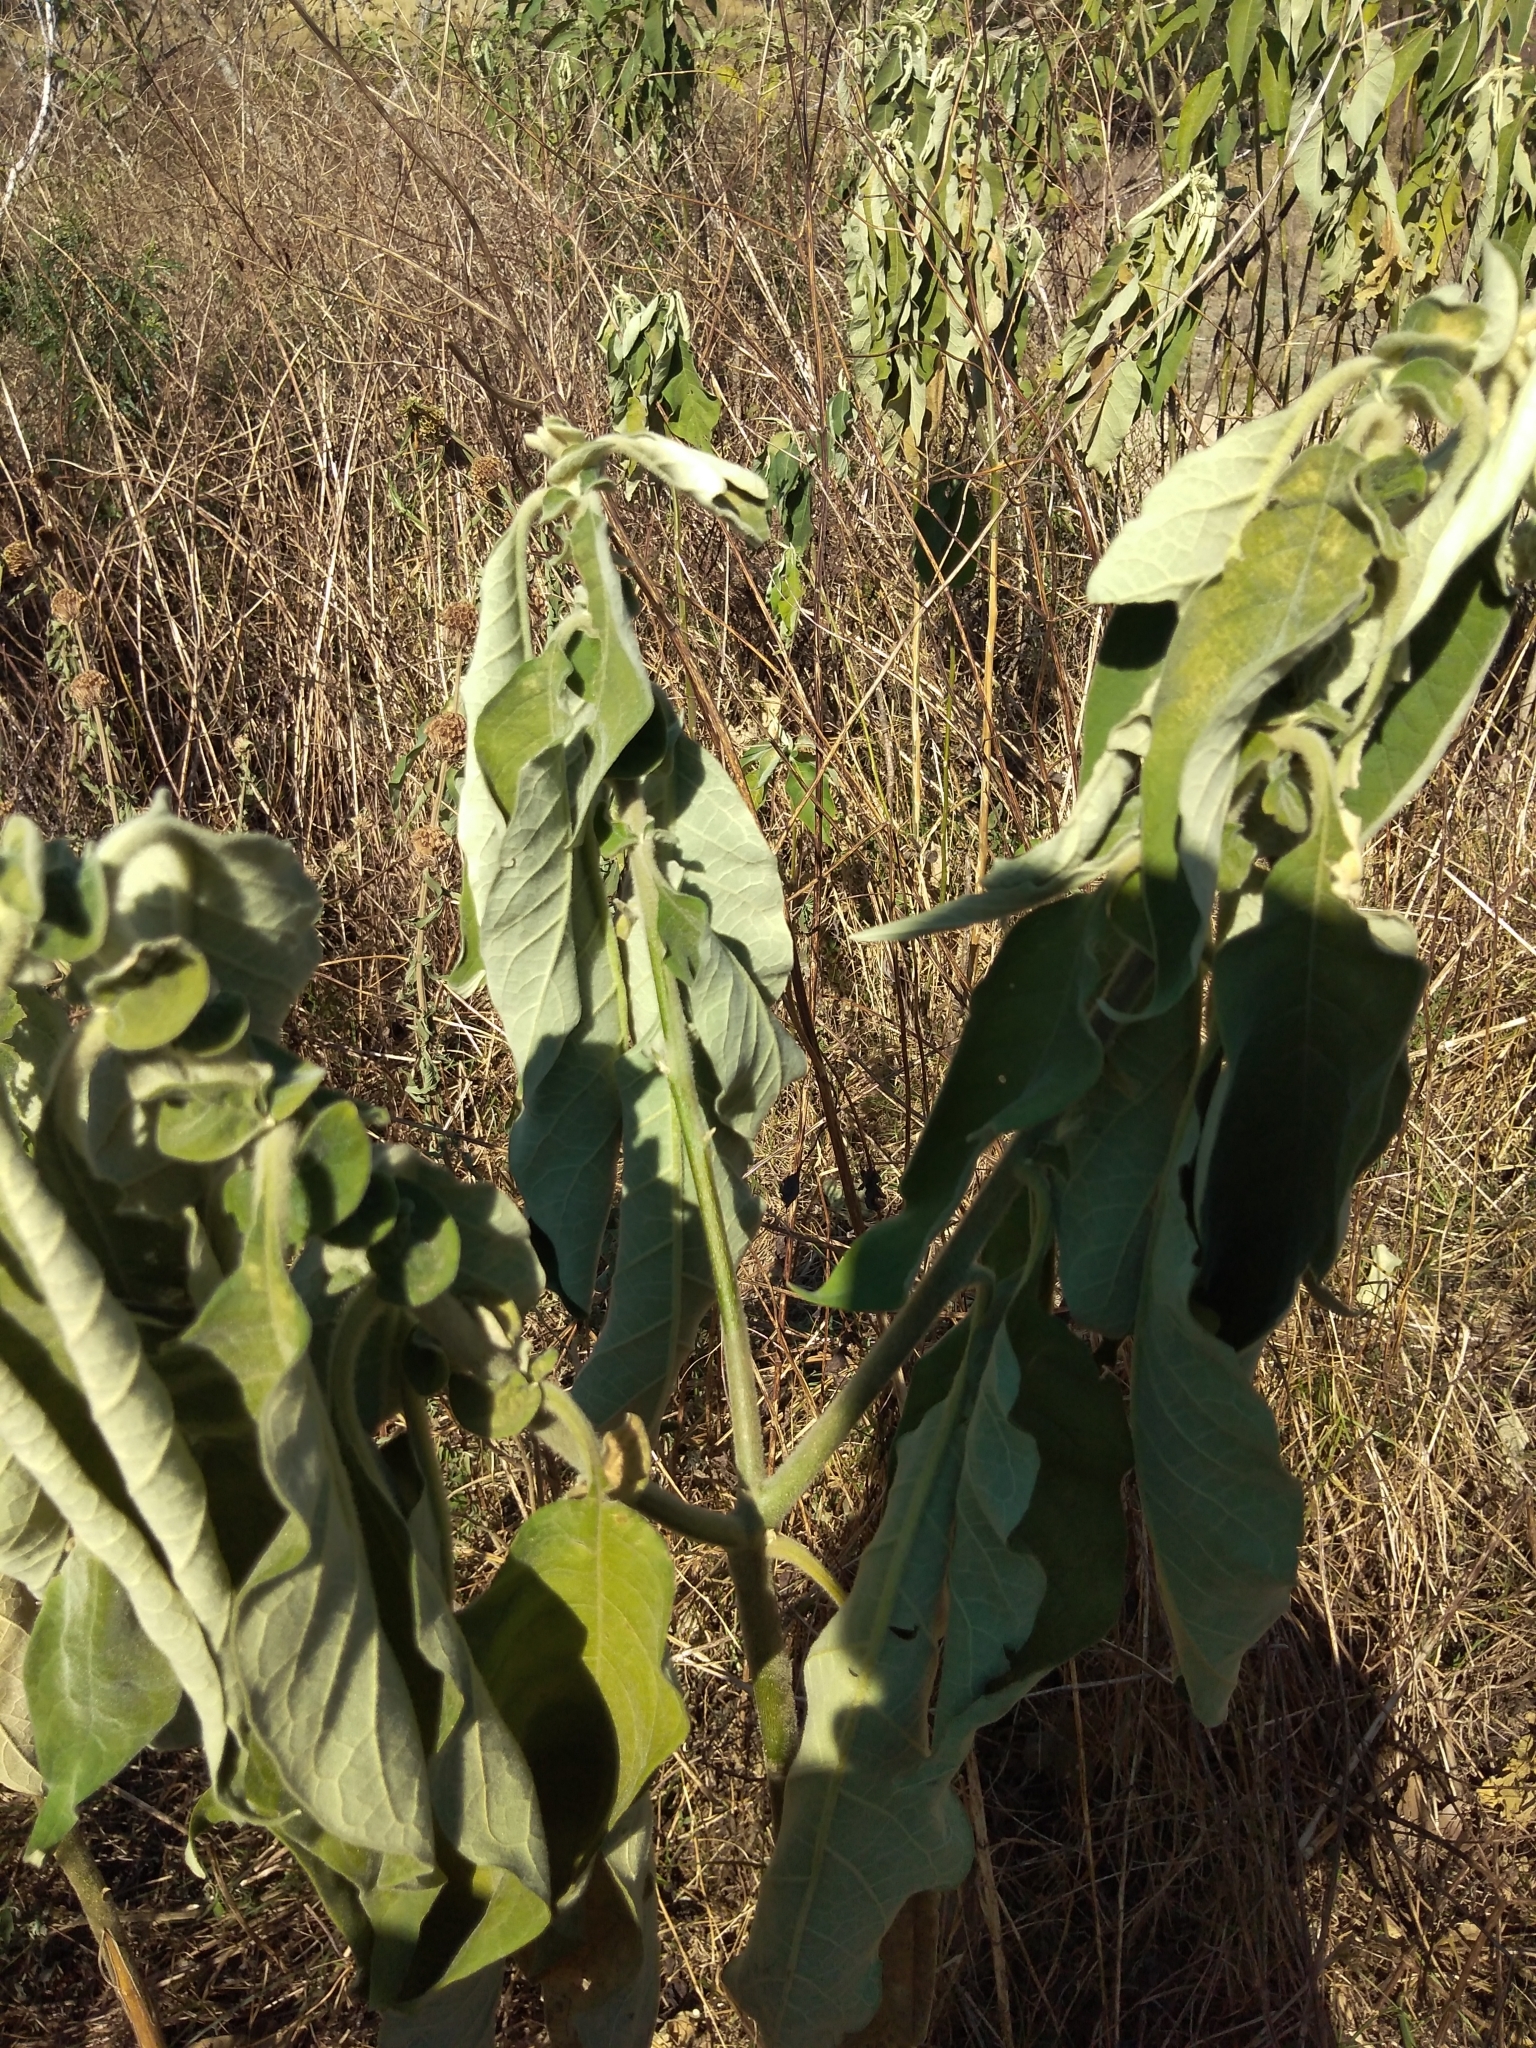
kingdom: Plantae
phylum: Tracheophyta
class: Magnoliopsida
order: Solanales
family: Solanaceae
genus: Solanum
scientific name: Solanum mauritianum
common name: Earleaf nightshade
